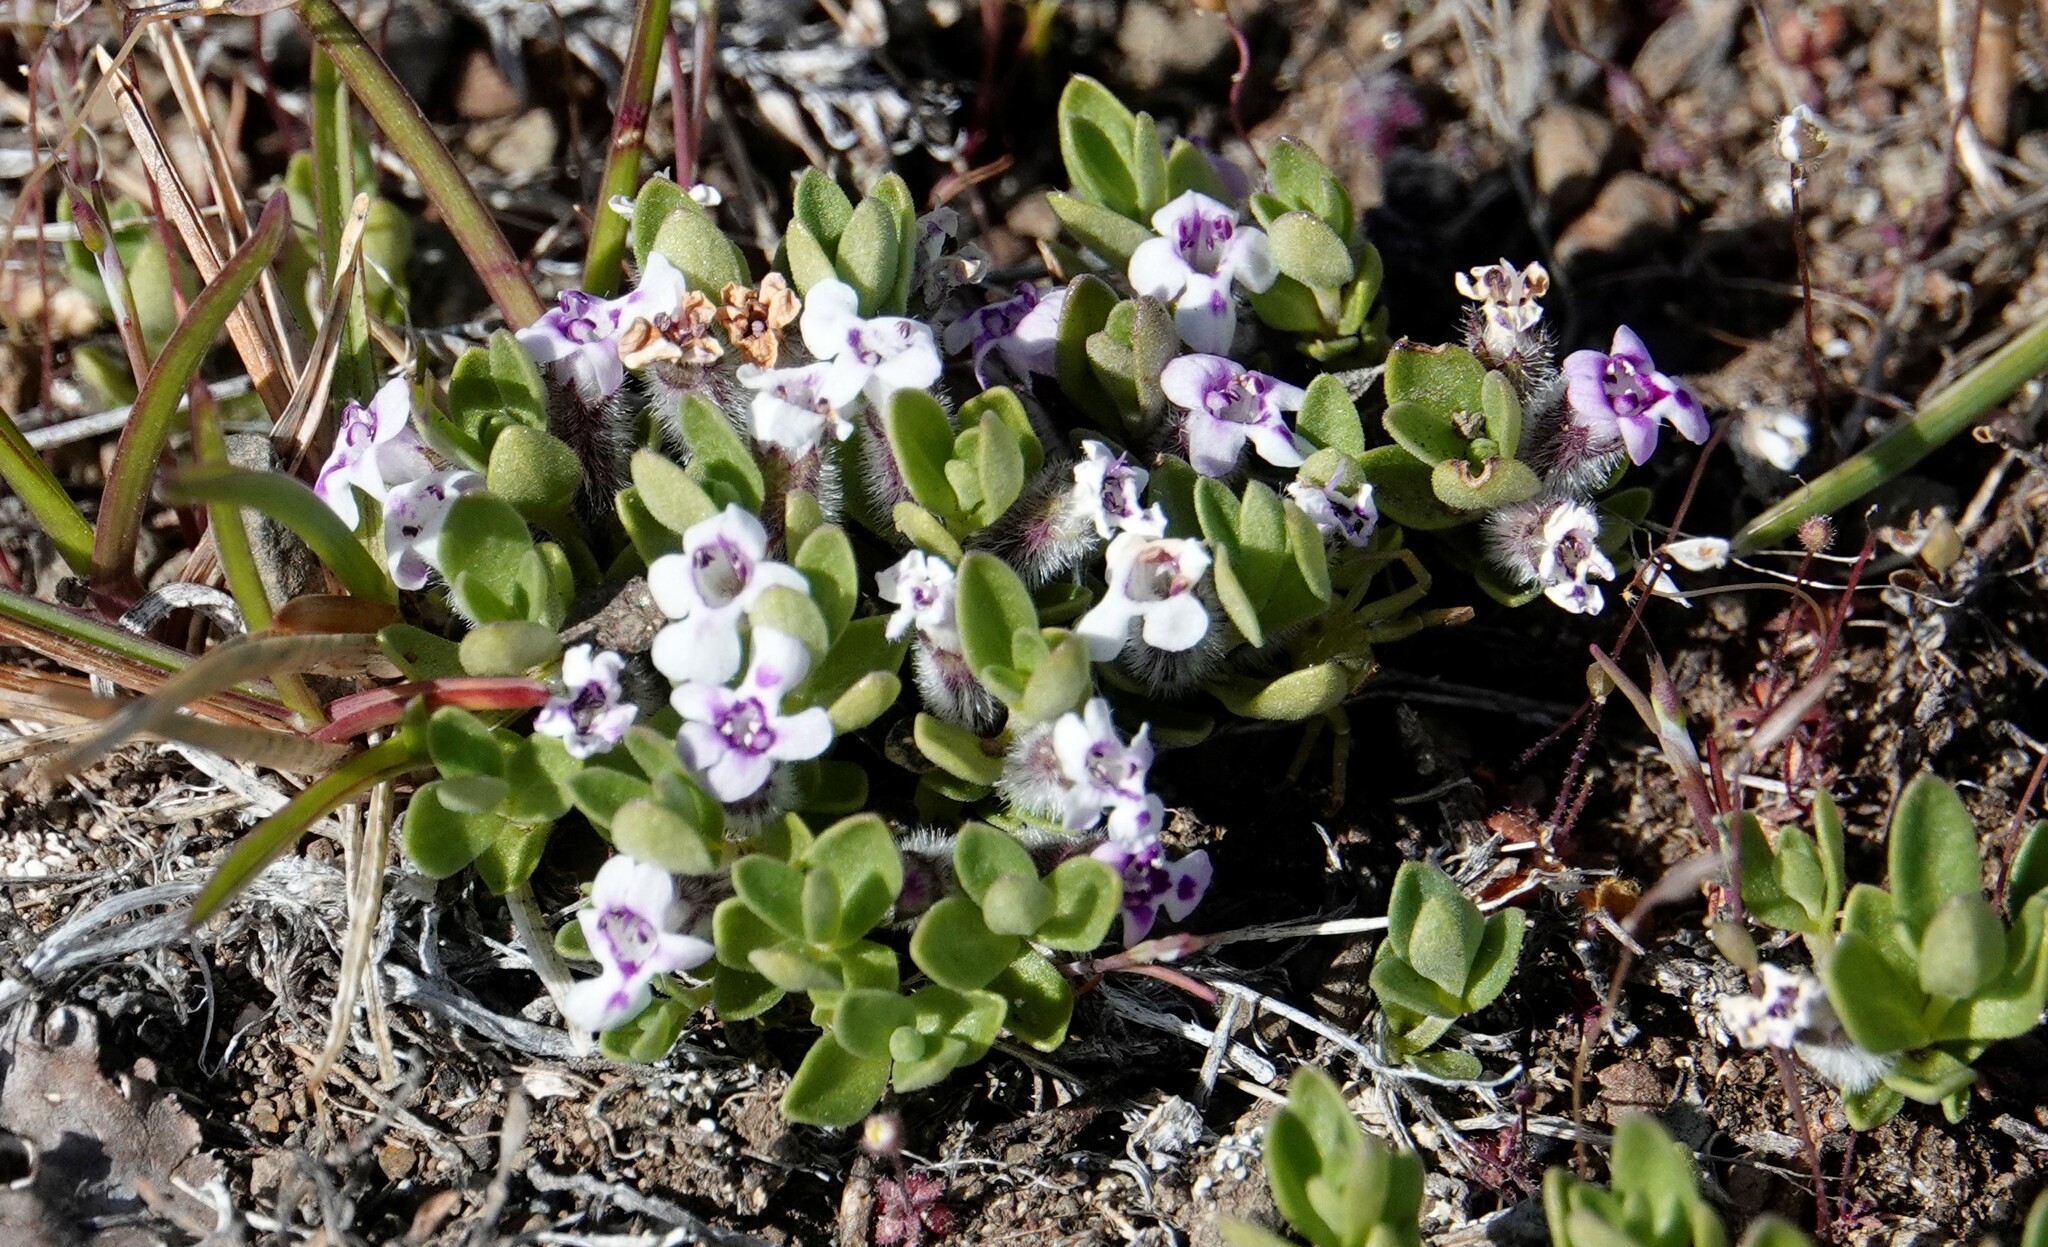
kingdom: Plantae
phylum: Tracheophyta
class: Magnoliopsida
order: Lamiales
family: Lamiaceae
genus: Clinopodium
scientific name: Clinopodium darwinii
